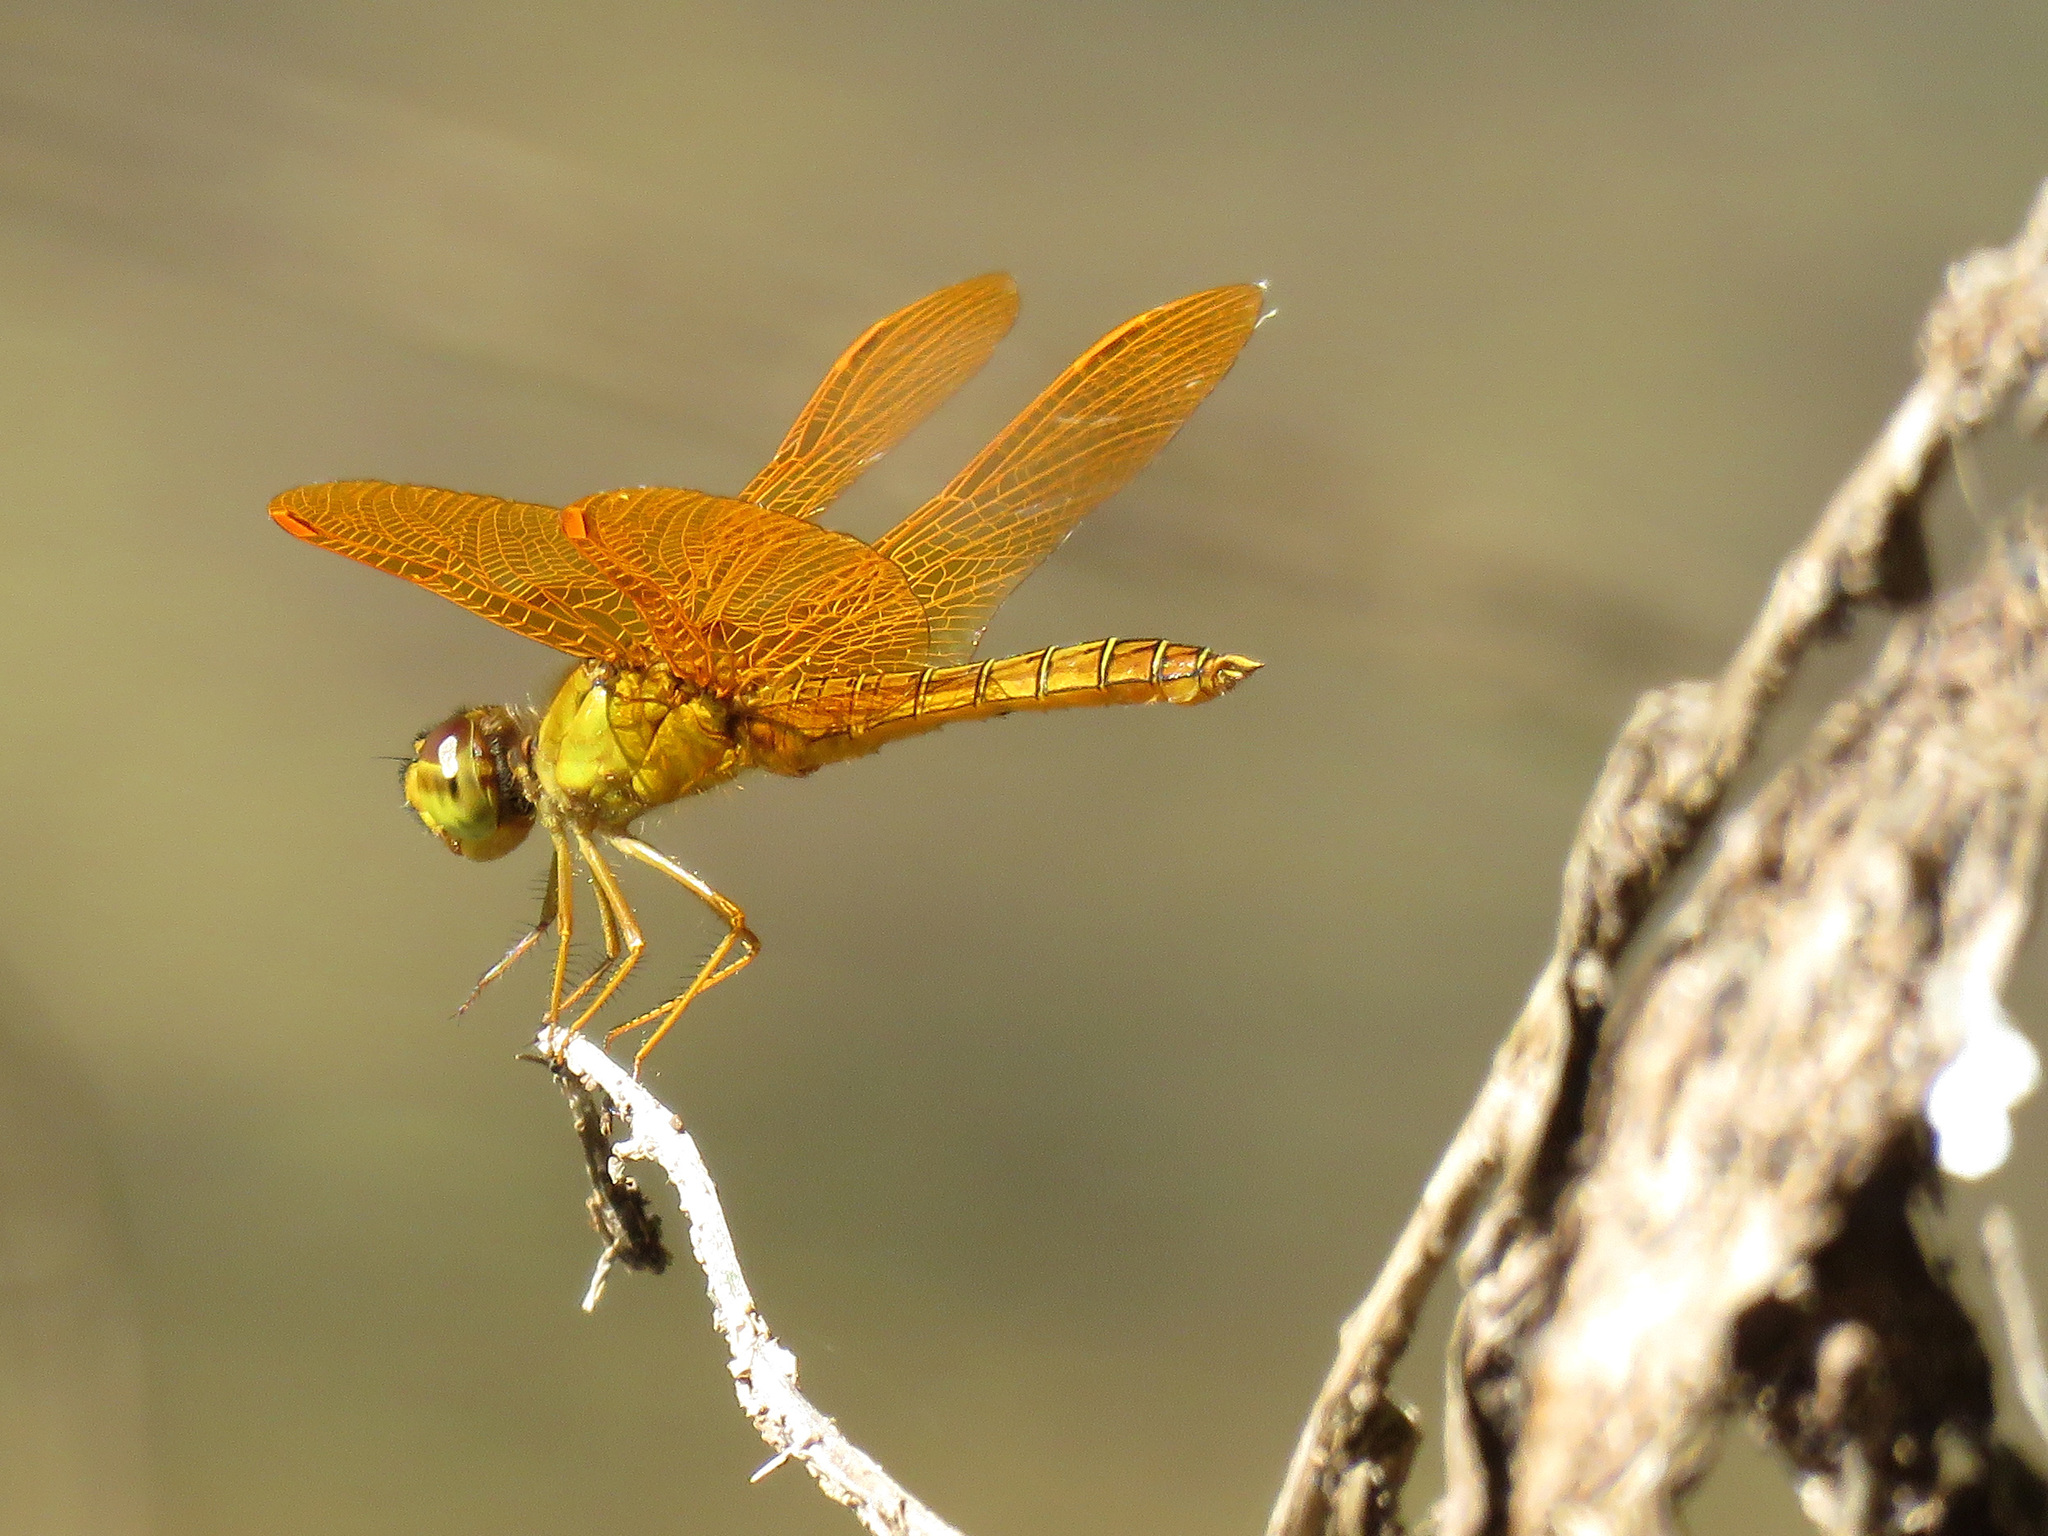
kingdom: Animalia
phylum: Arthropoda
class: Insecta
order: Odonata
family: Libellulidae
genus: Perithemis
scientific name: Perithemis intensa
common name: Mexican amberwing
